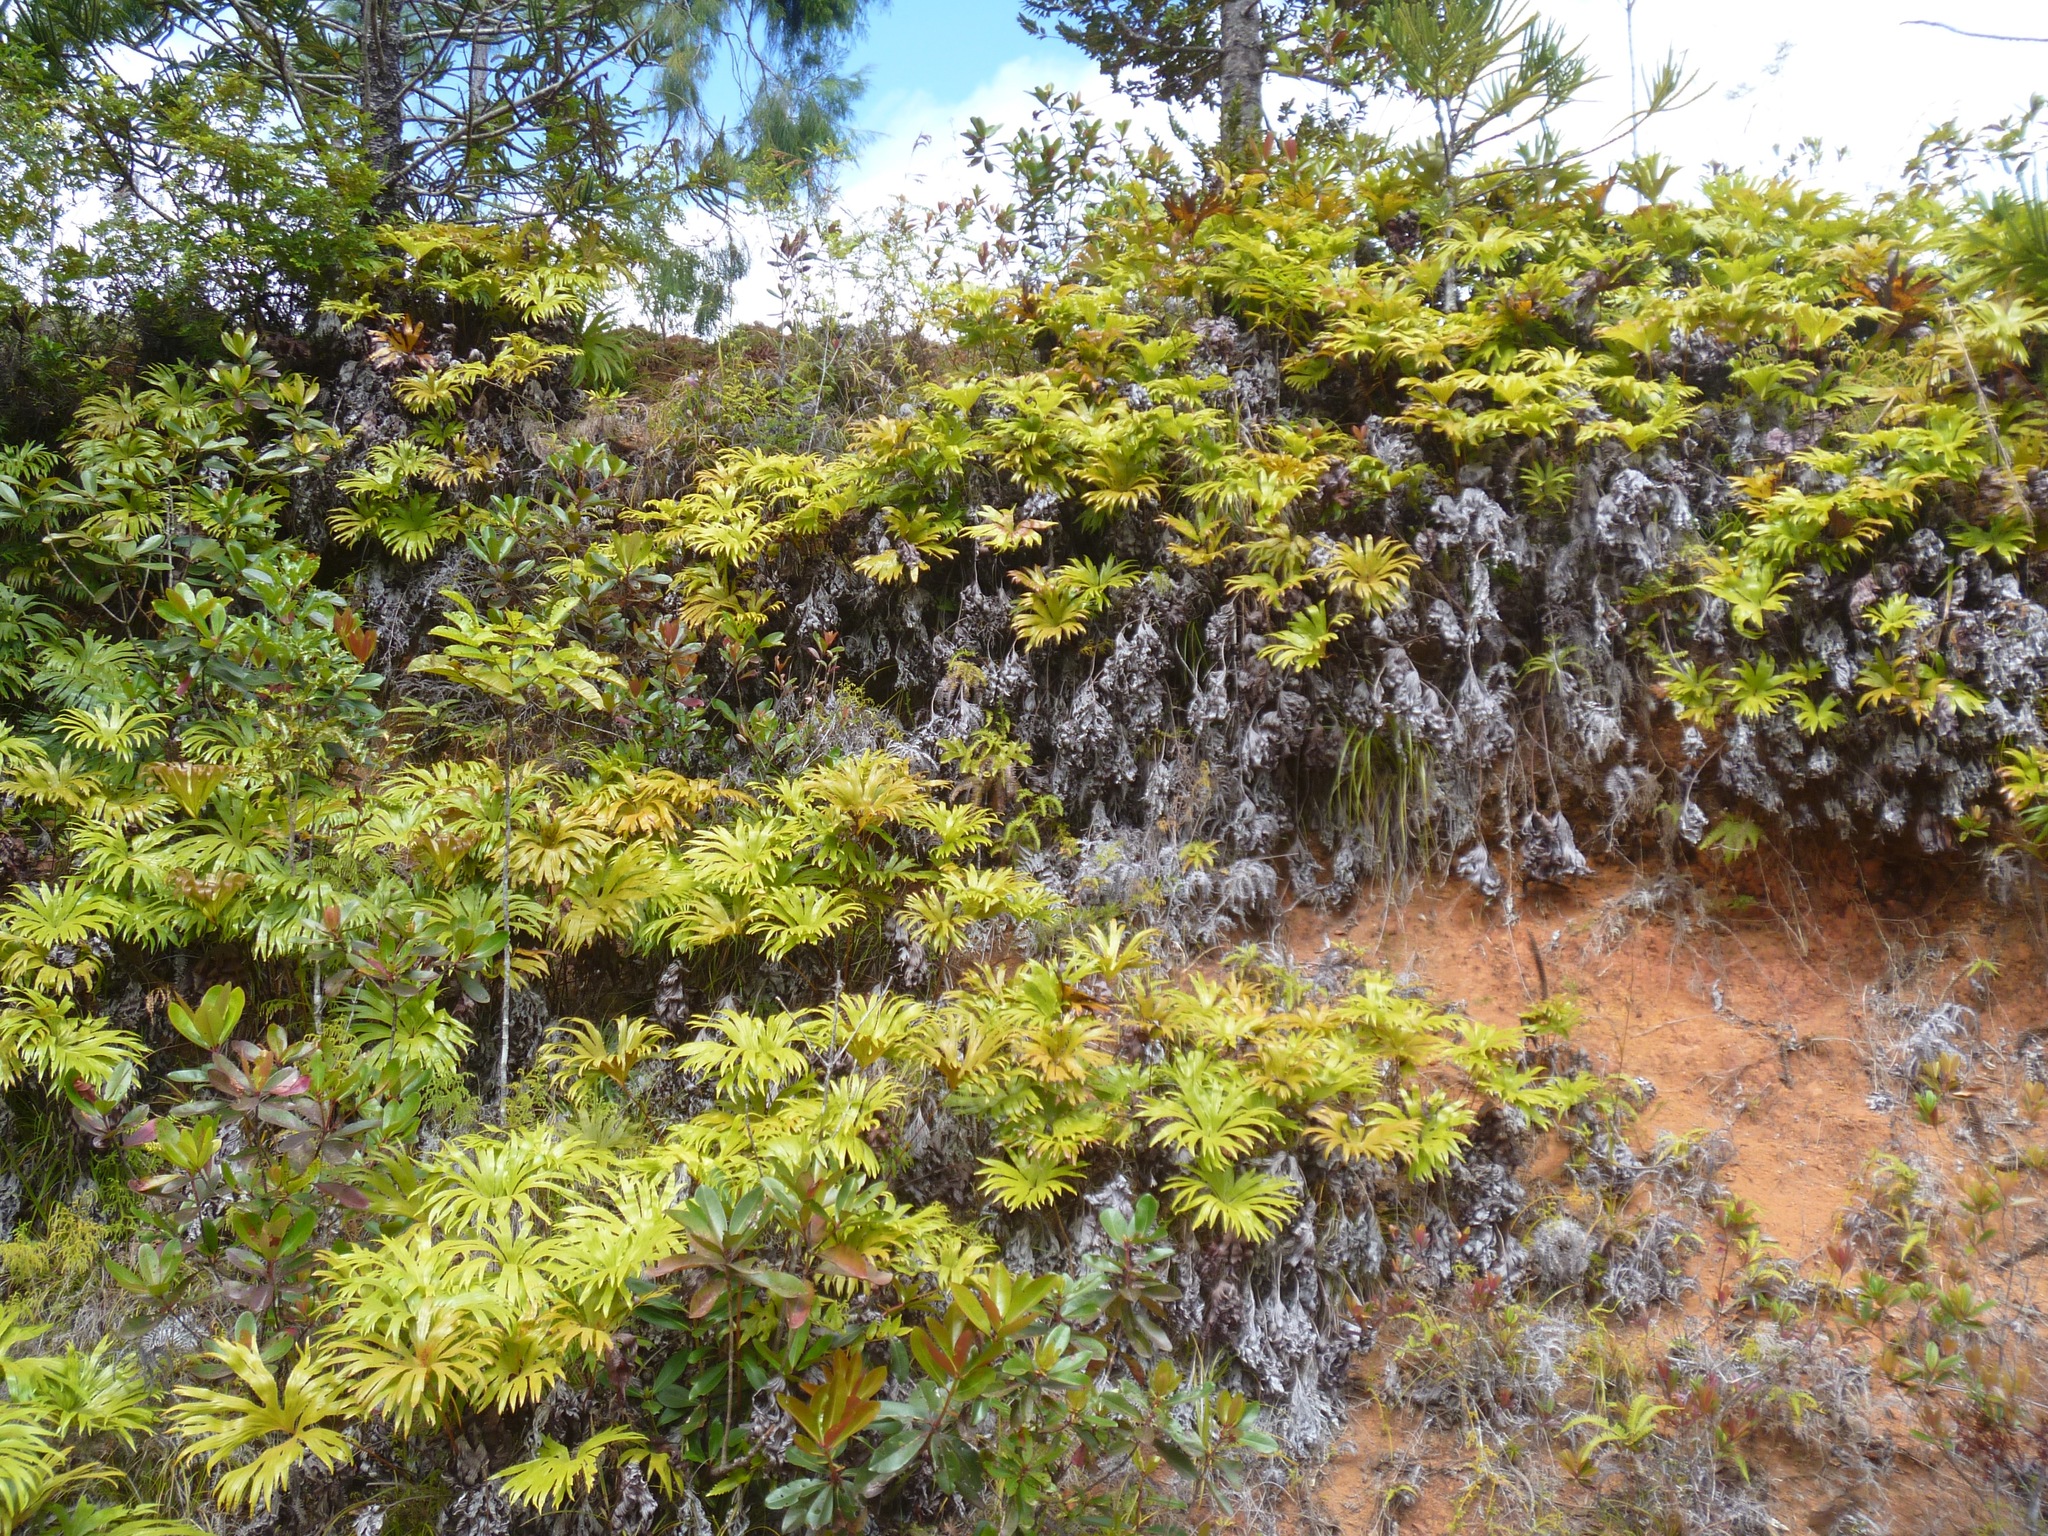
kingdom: Plantae
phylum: Tracheophyta
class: Polypodiopsida
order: Gleicheniales
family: Dipteridaceae
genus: Dipteris
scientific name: Dipteris conjugata
